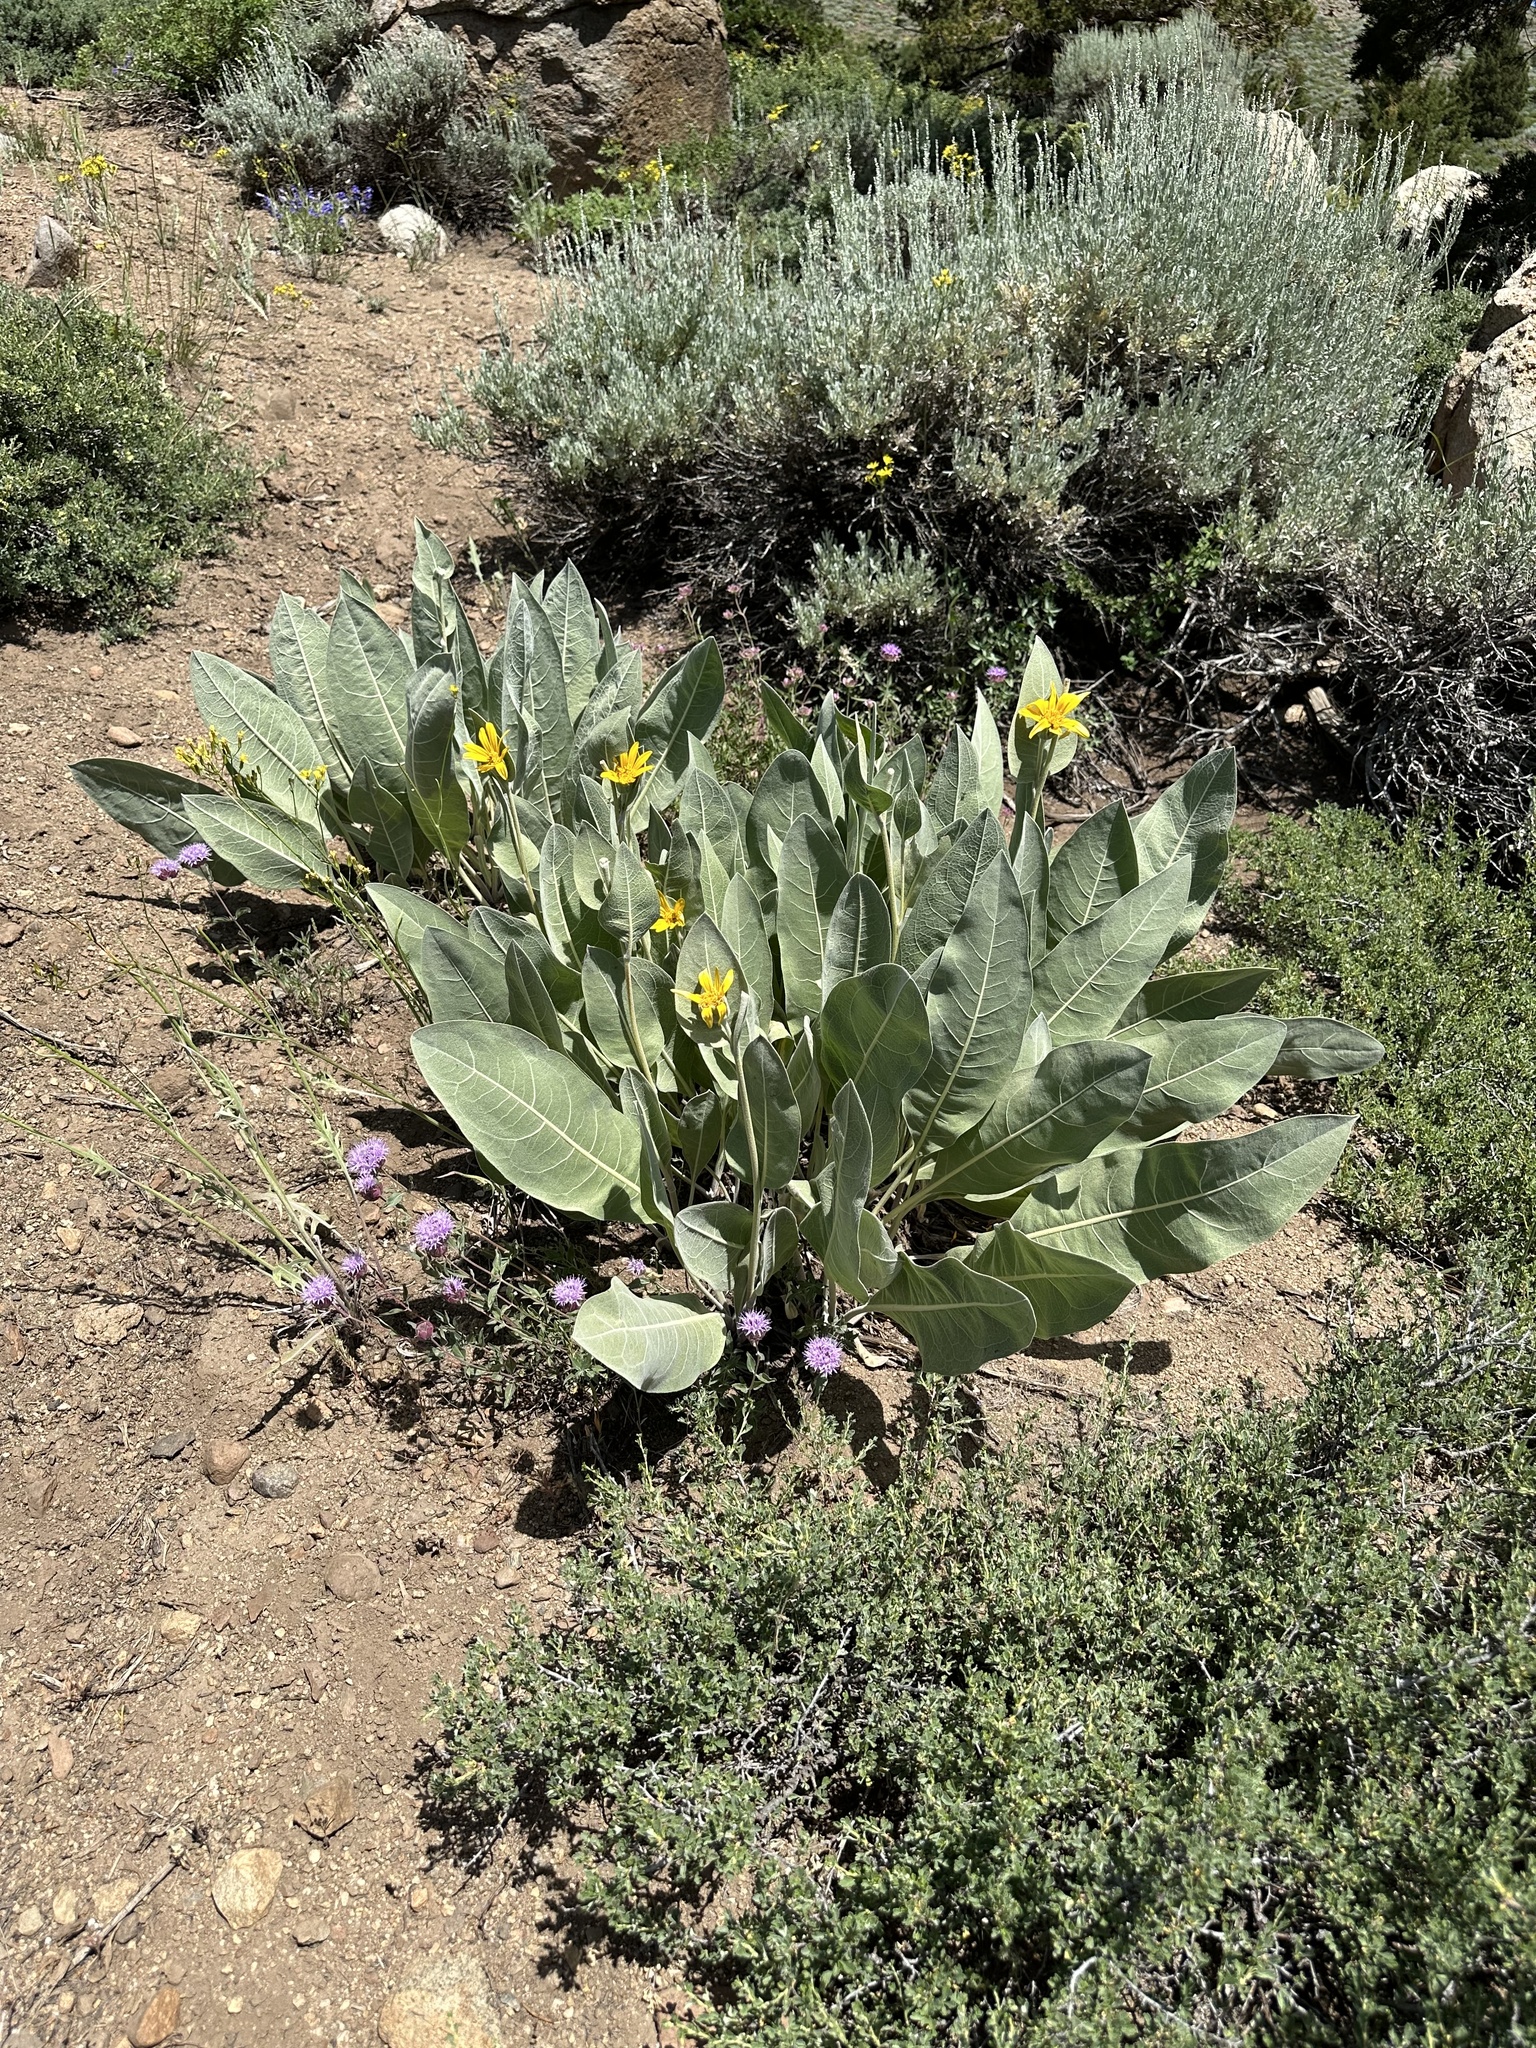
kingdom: Plantae
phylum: Tracheophyta
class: Magnoliopsida
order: Asterales
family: Asteraceae
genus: Wyethia
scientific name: Wyethia mollis
